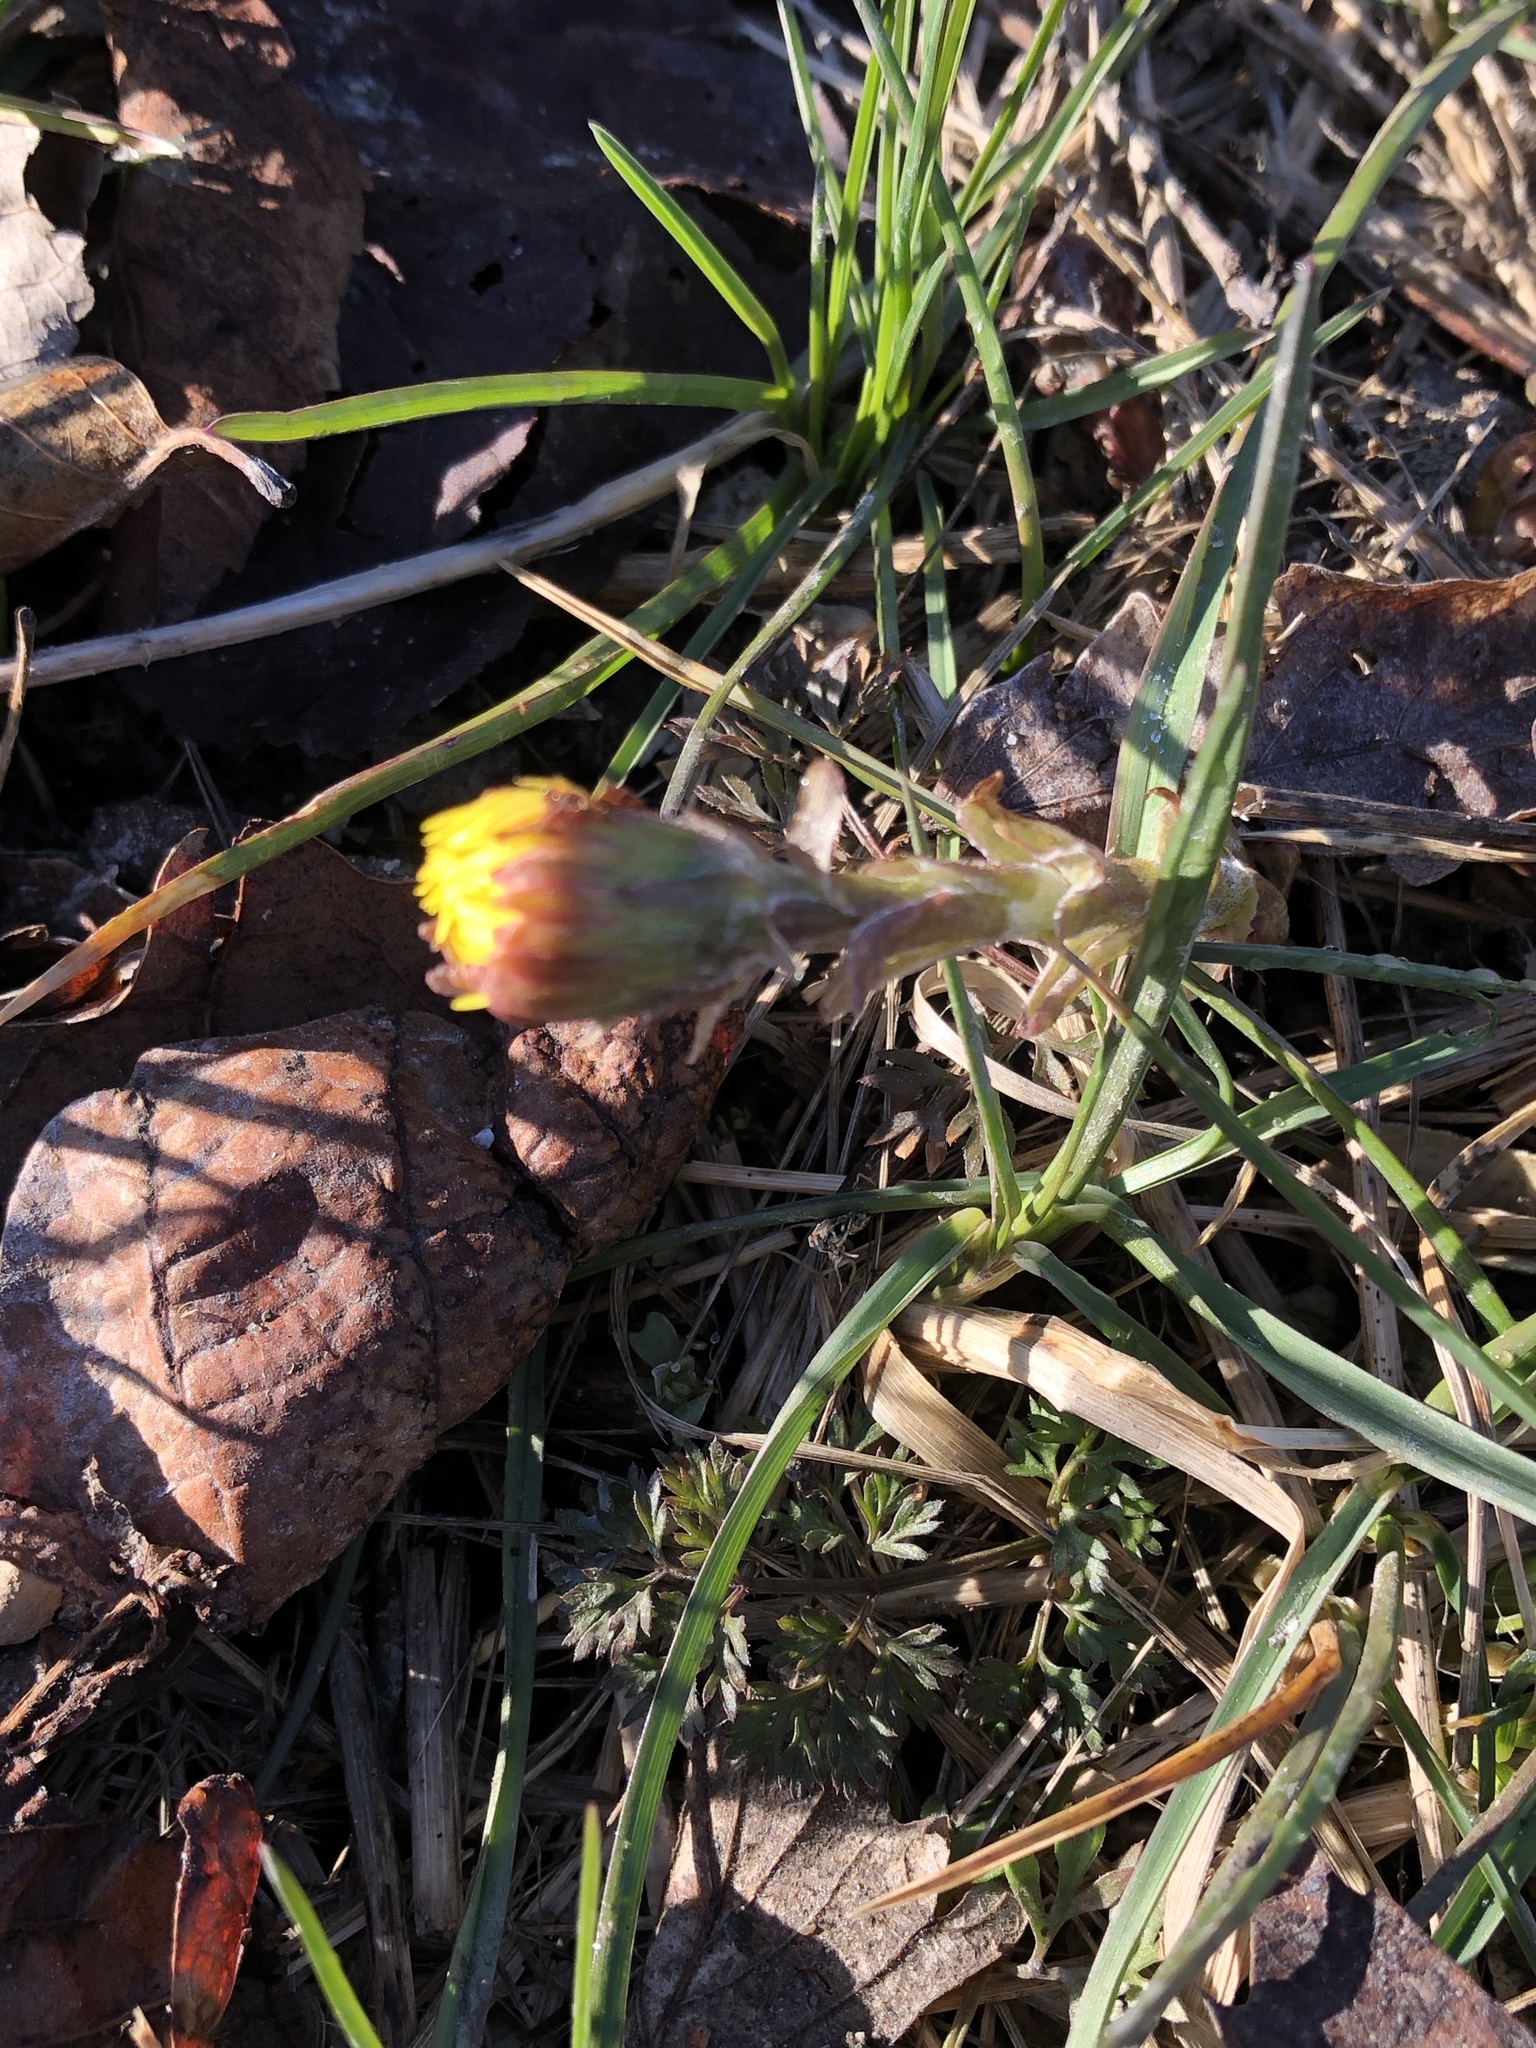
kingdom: Plantae
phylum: Tracheophyta
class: Magnoliopsida
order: Asterales
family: Asteraceae
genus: Tussilago
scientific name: Tussilago farfara
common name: Coltsfoot
